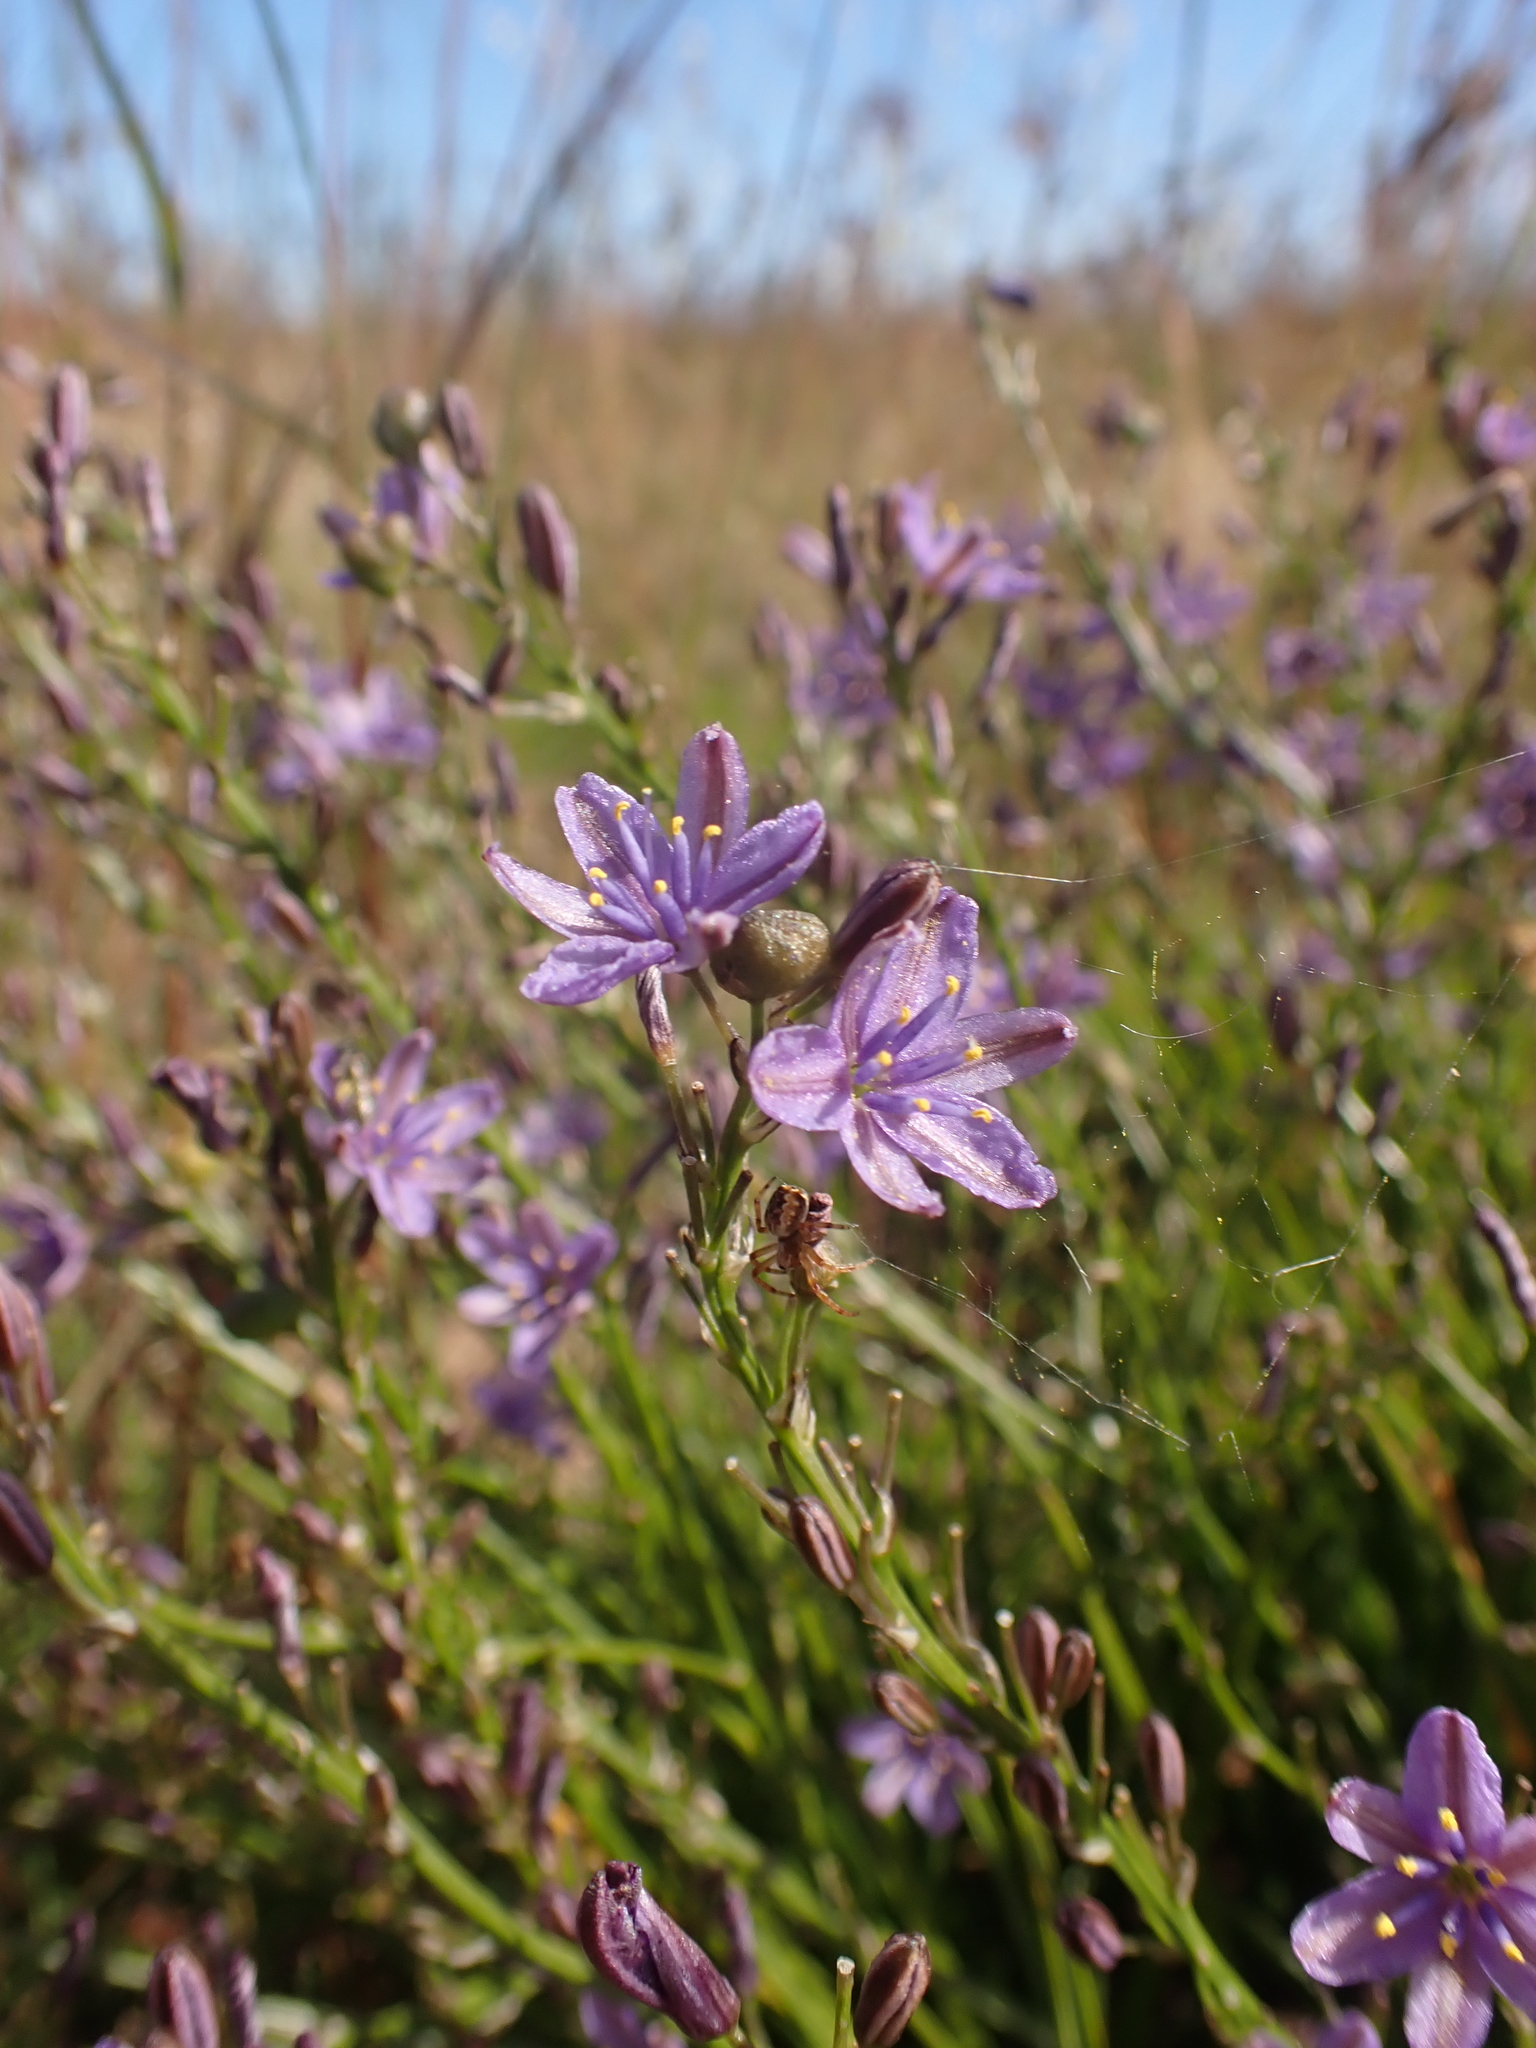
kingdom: Plantae
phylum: Tracheophyta
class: Liliopsida
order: Asparagales
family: Asphodelaceae
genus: Caesia
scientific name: Caesia calliantha
